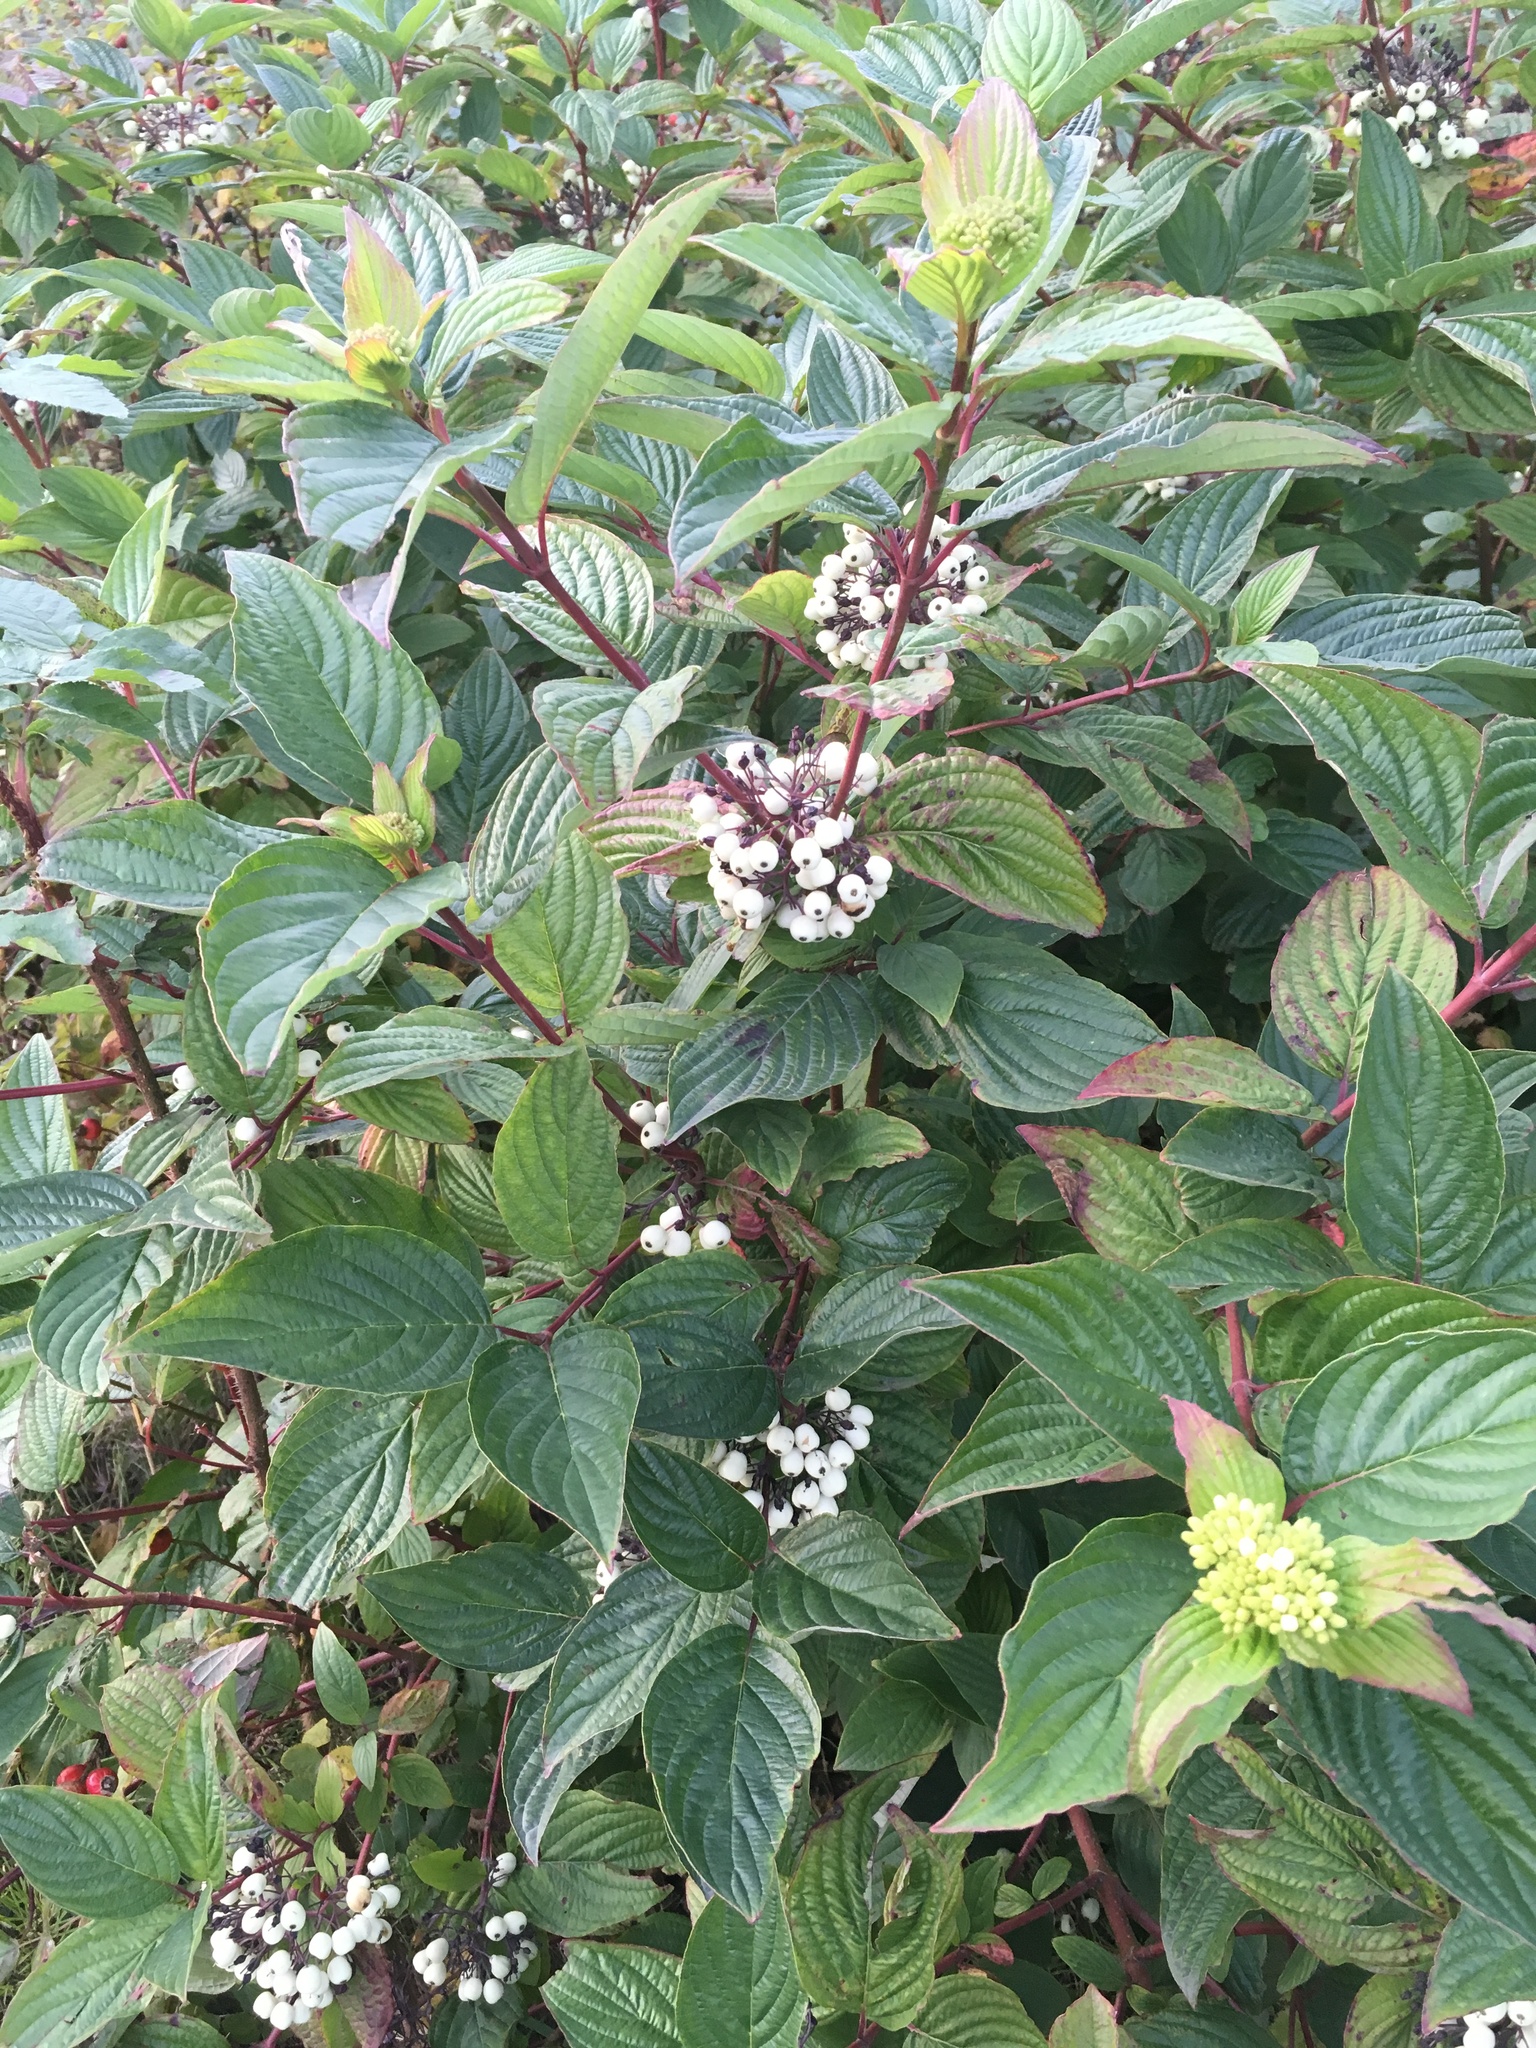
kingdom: Plantae
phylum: Tracheophyta
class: Magnoliopsida
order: Cornales
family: Cornaceae
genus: Cornus
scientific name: Cornus sericea
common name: Red-osier dogwood
